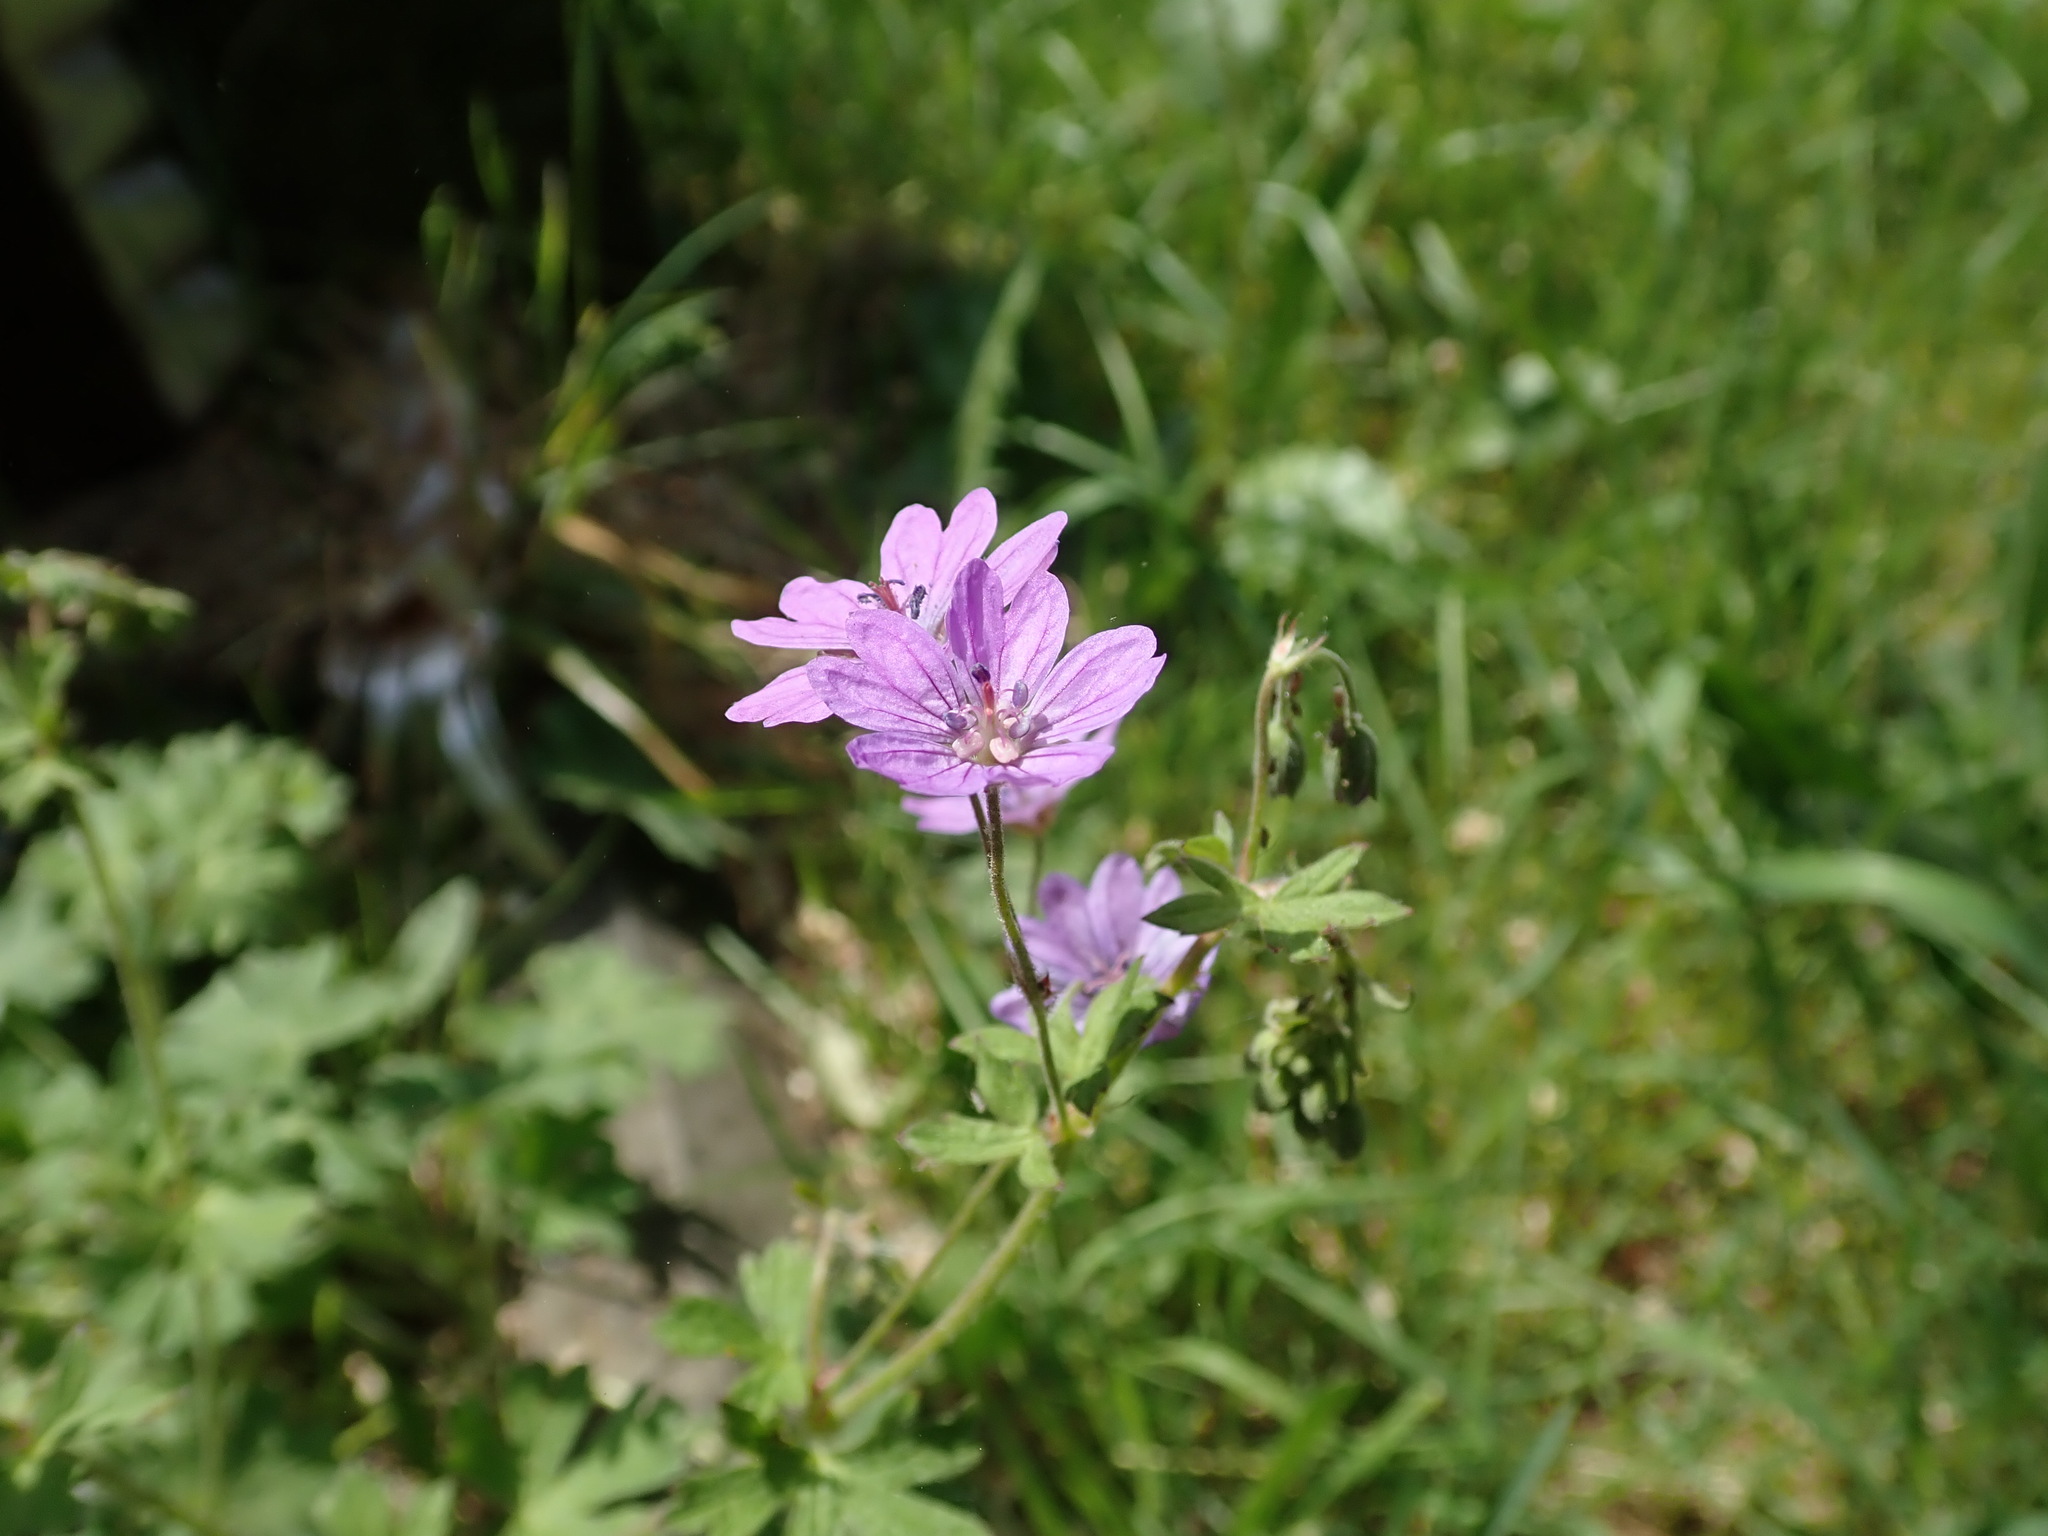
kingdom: Plantae
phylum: Tracheophyta
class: Magnoliopsida
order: Geraniales
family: Geraniaceae
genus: Geranium
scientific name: Geranium pyrenaicum
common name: Hedgerow crane's-bill
